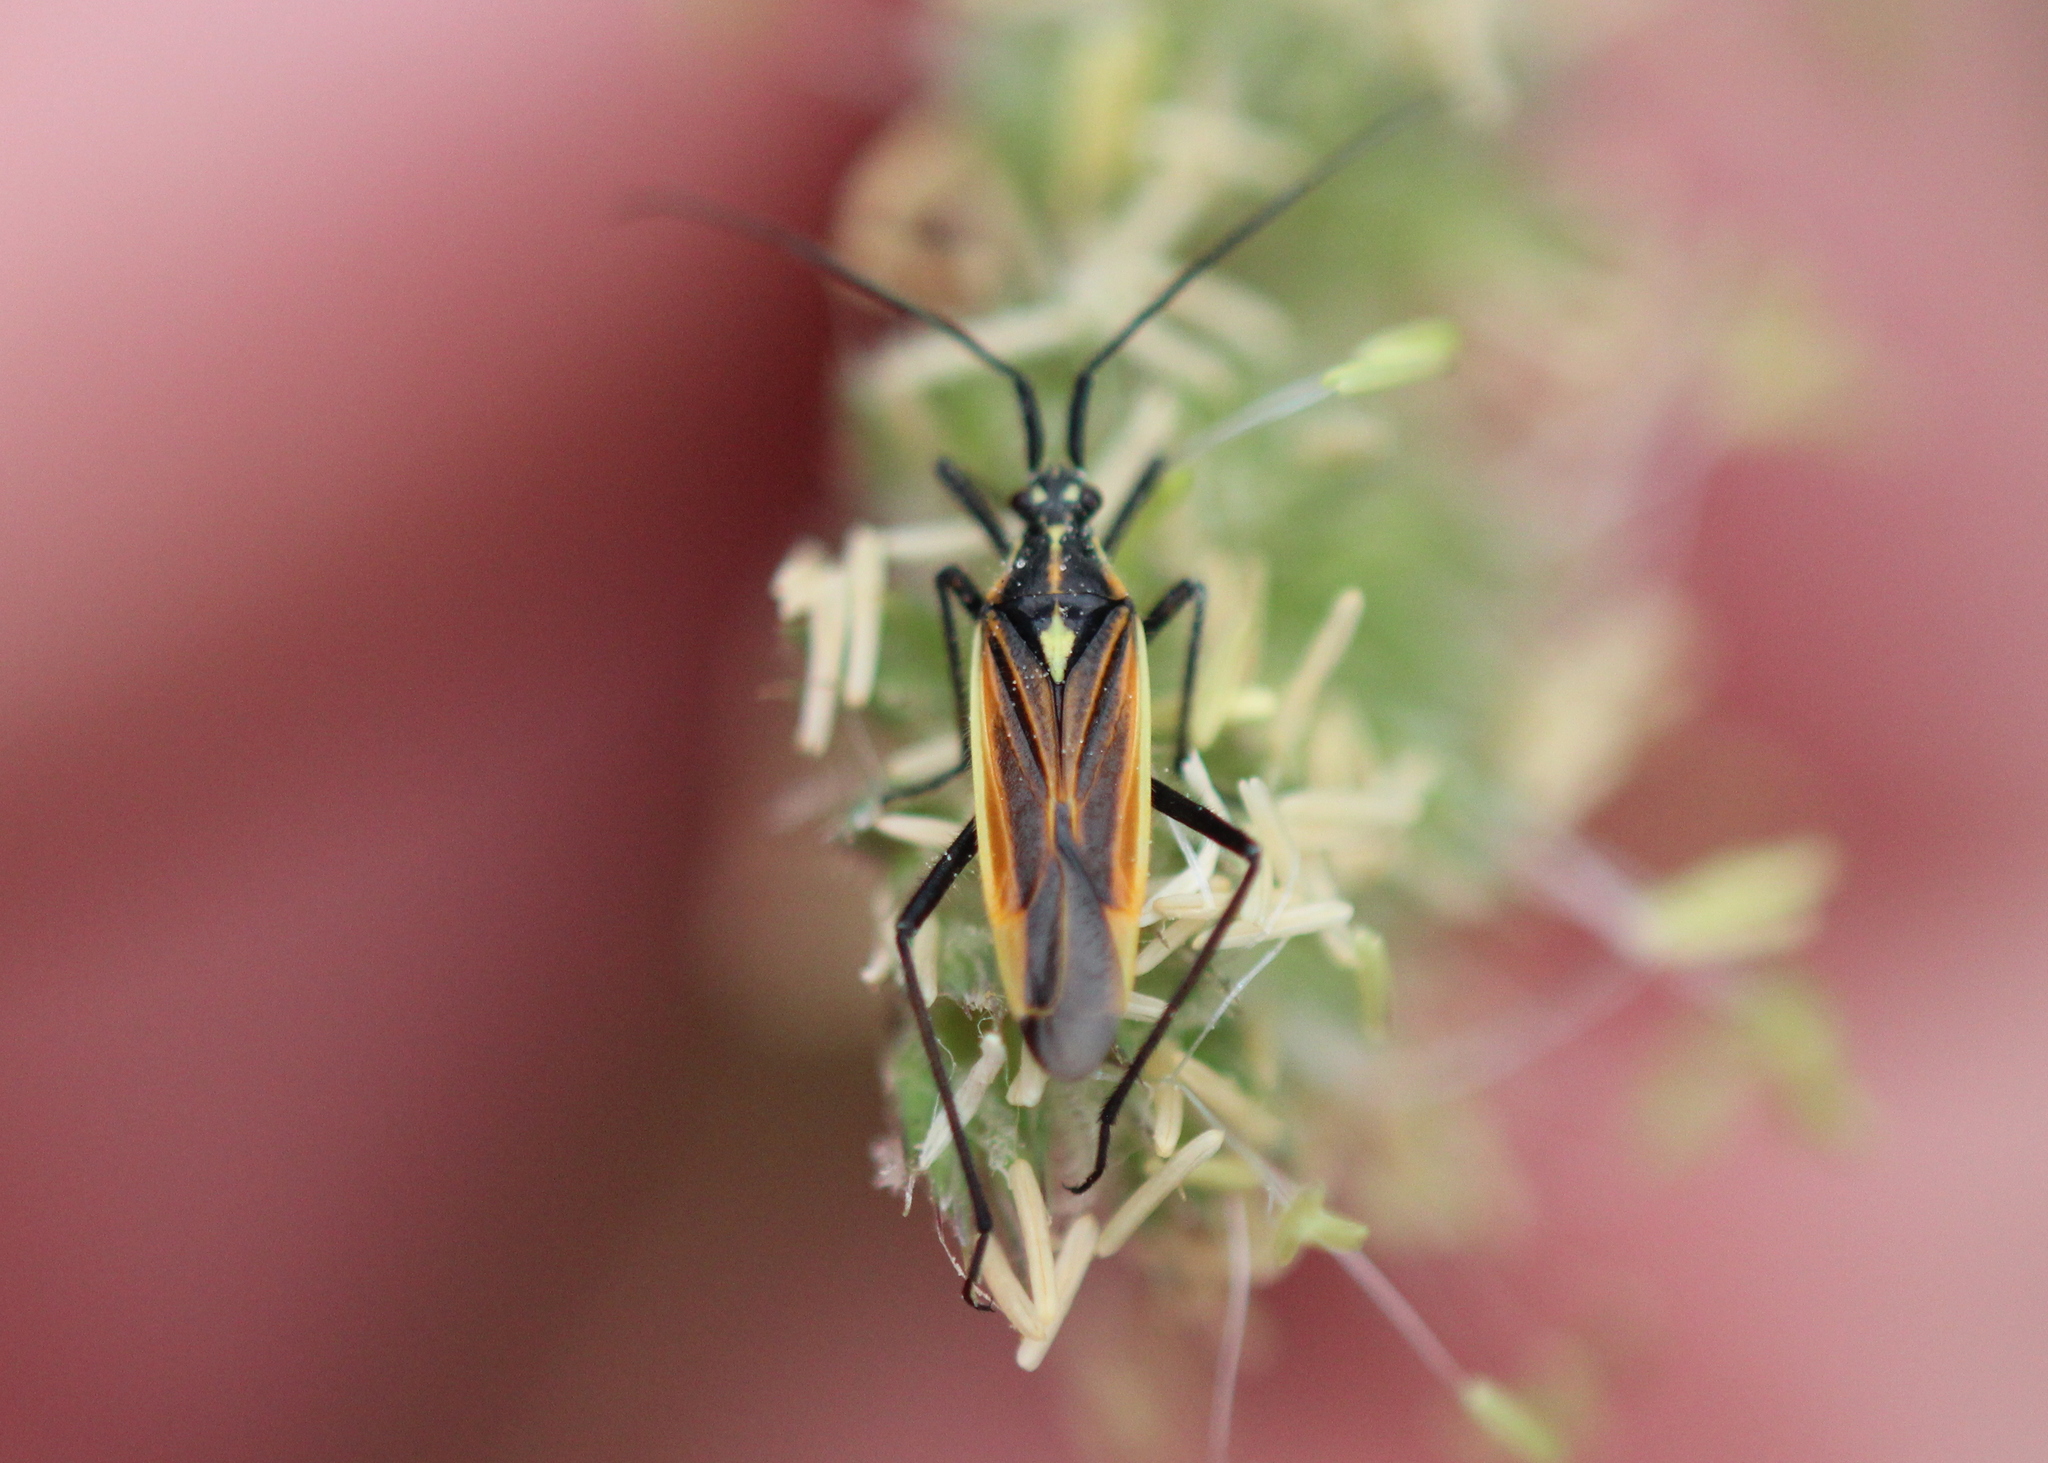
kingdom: Animalia
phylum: Arthropoda
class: Insecta
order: Hemiptera
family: Miridae
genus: Leptopterna
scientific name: Leptopterna dolabrata
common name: Meadow plant bug
